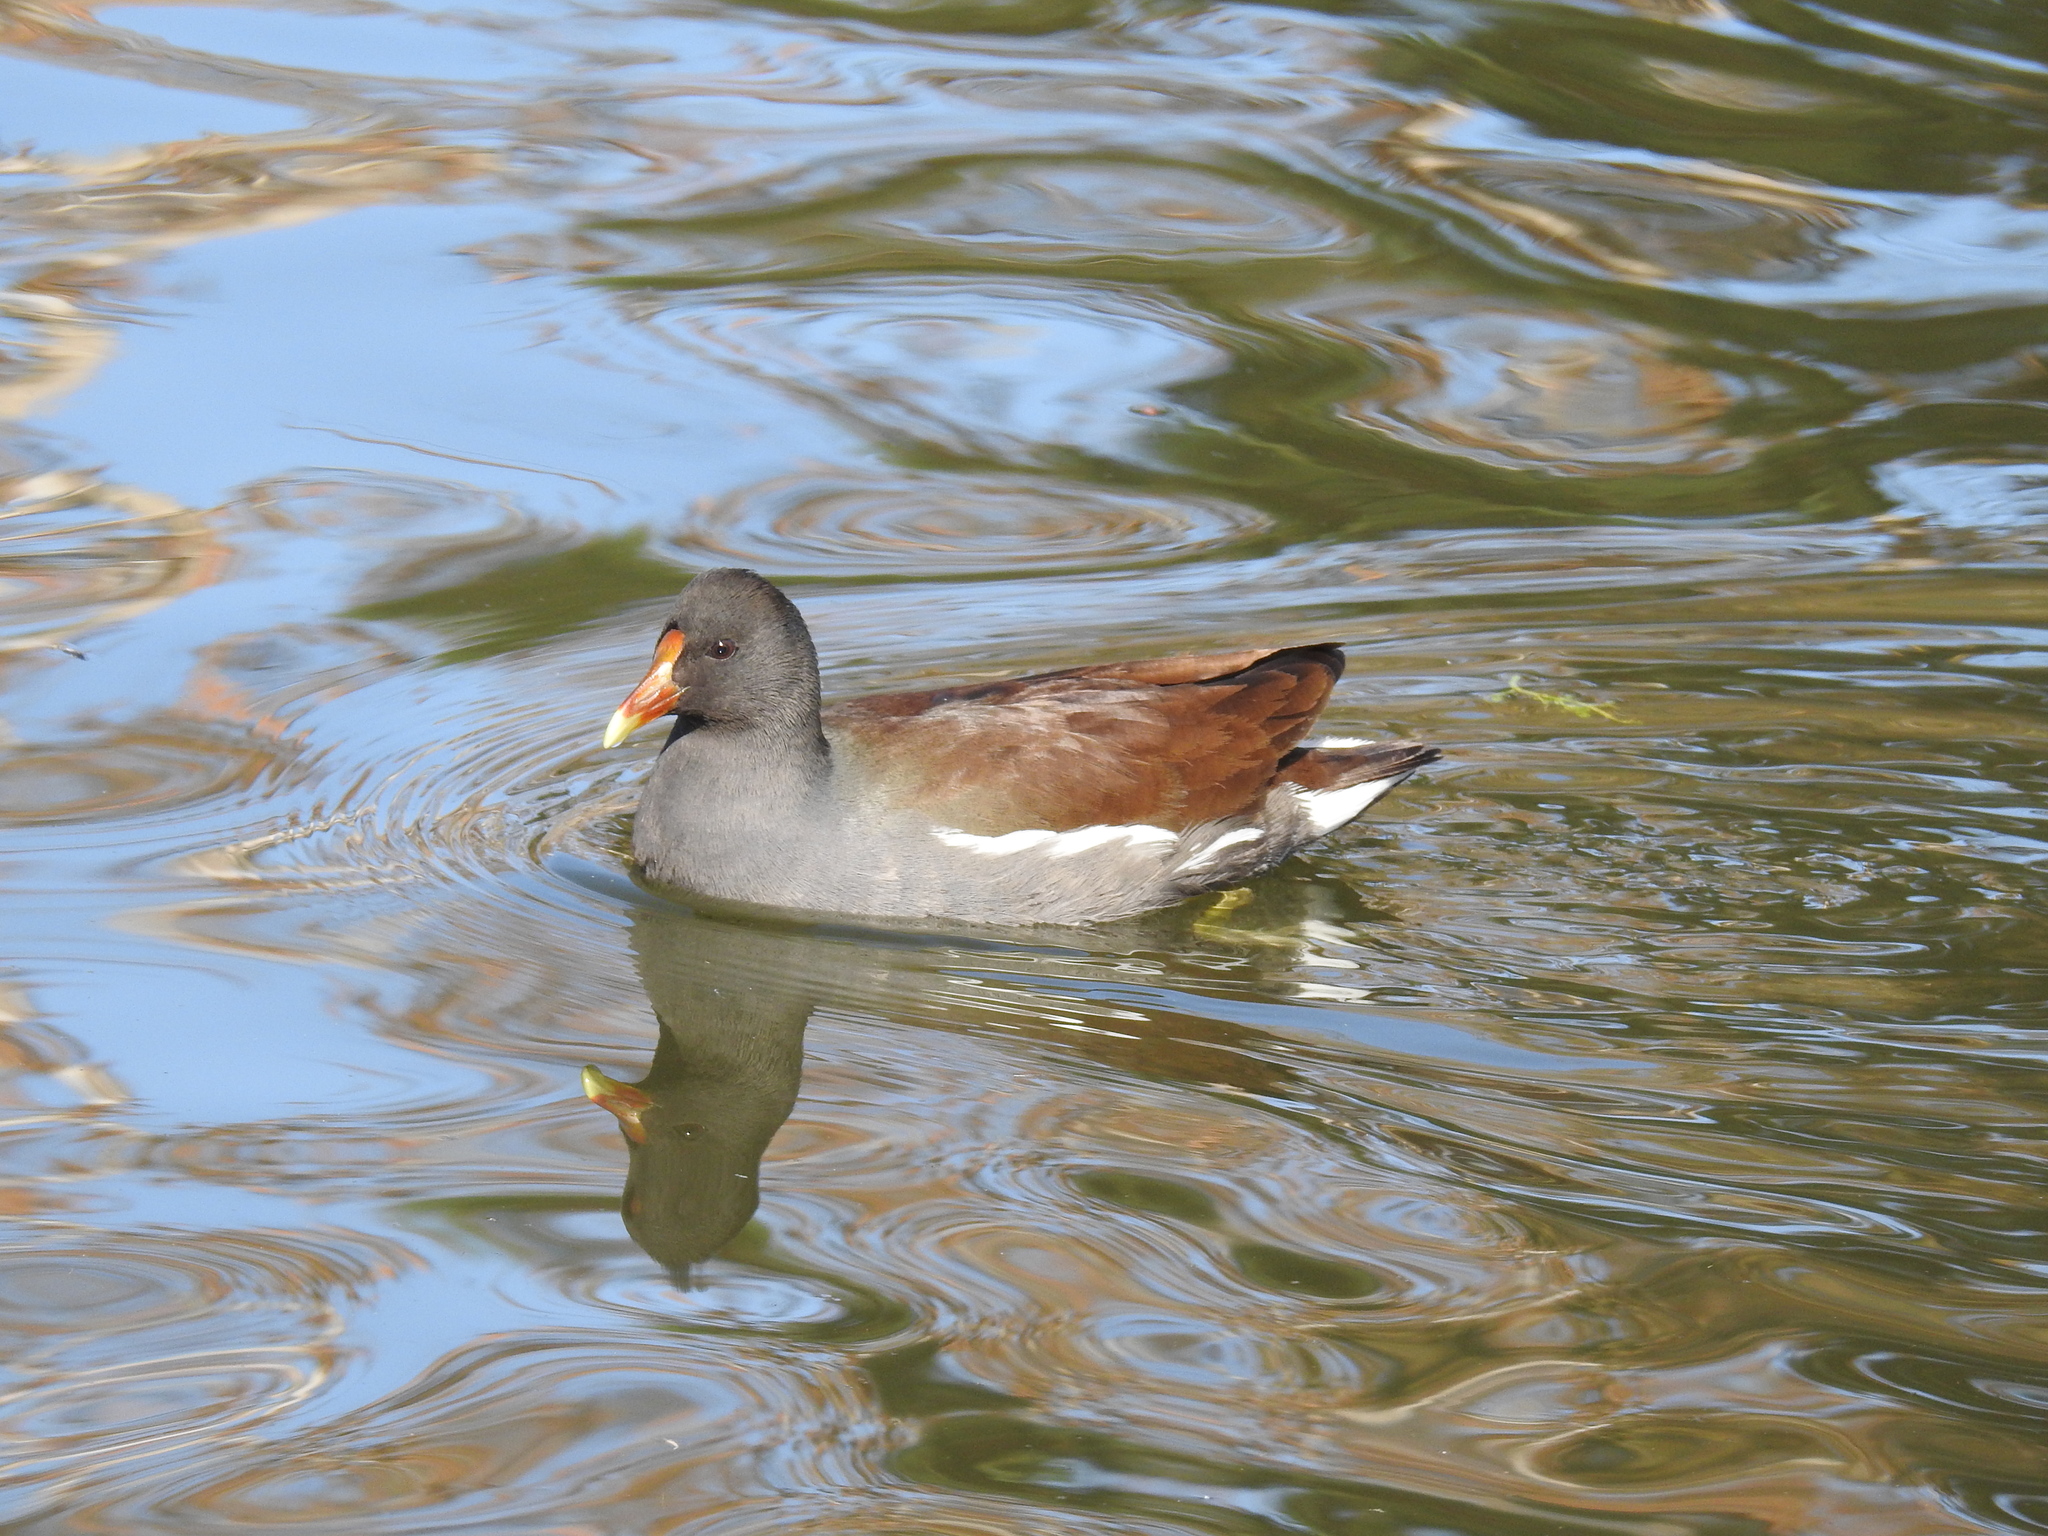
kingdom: Animalia
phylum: Chordata
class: Aves
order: Gruiformes
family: Rallidae
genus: Gallinula
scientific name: Gallinula chloropus
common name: Common moorhen
